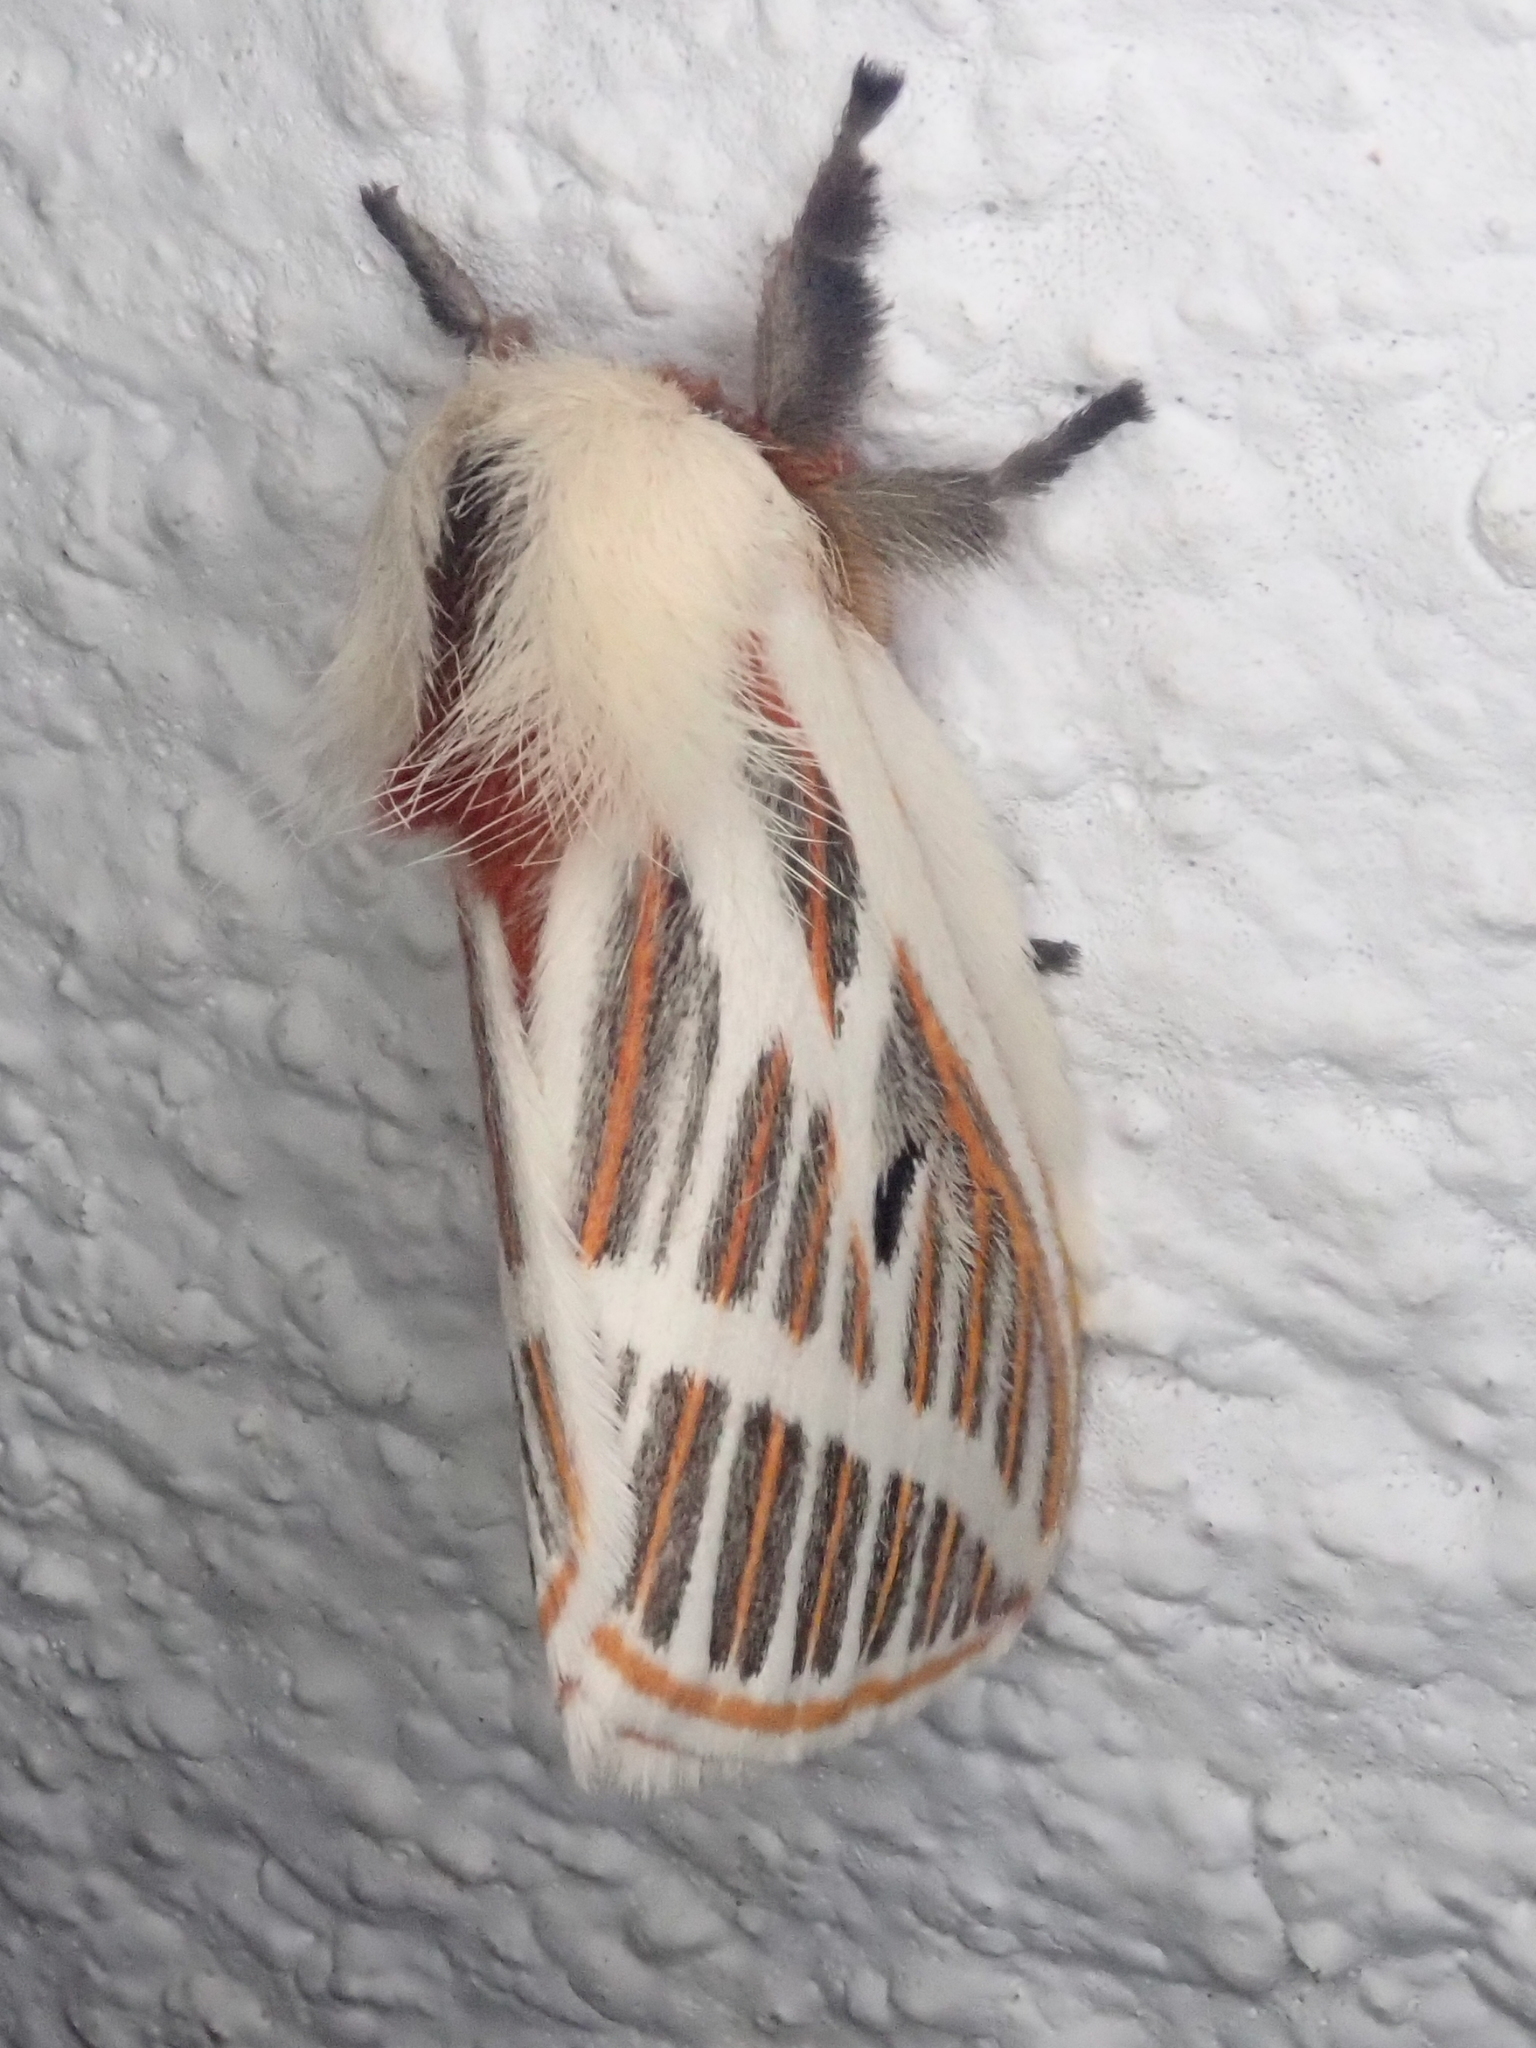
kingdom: Animalia
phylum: Arthropoda
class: Insecta
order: Lepidoptera
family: Saturniidae
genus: Eubergia
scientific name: Eubergia caisa
